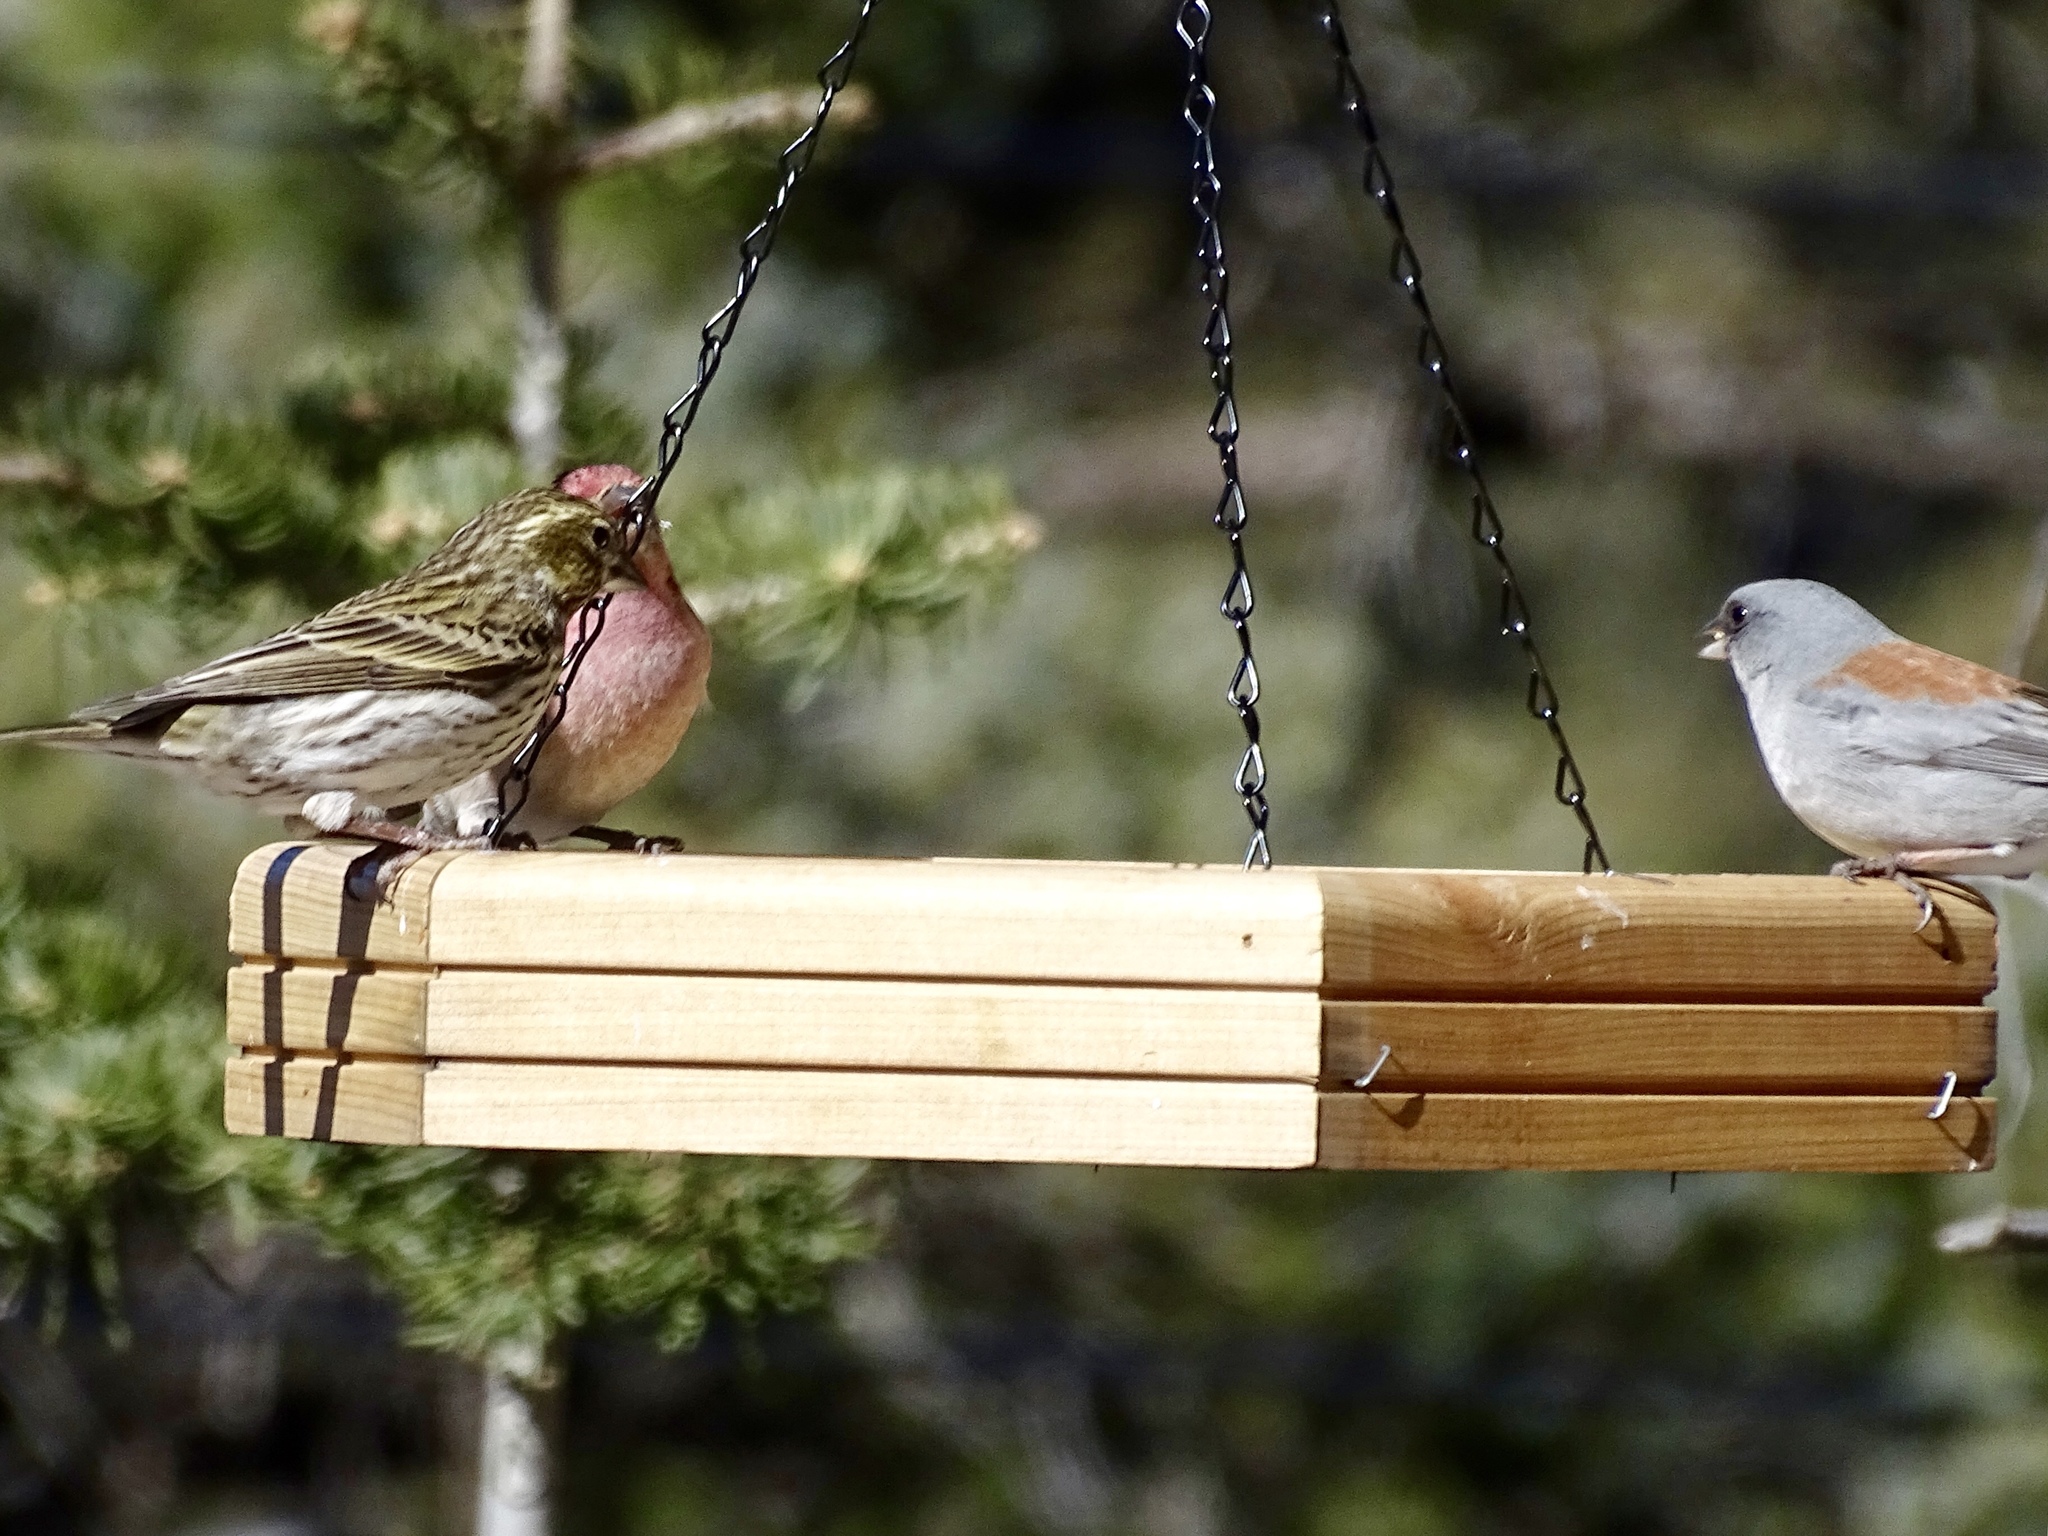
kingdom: Animalia
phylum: Chordata
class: Aves
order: Passeriformes
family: Fringillidae
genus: Haemorhous
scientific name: Haemorhous cassinii
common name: Cassin's finch
